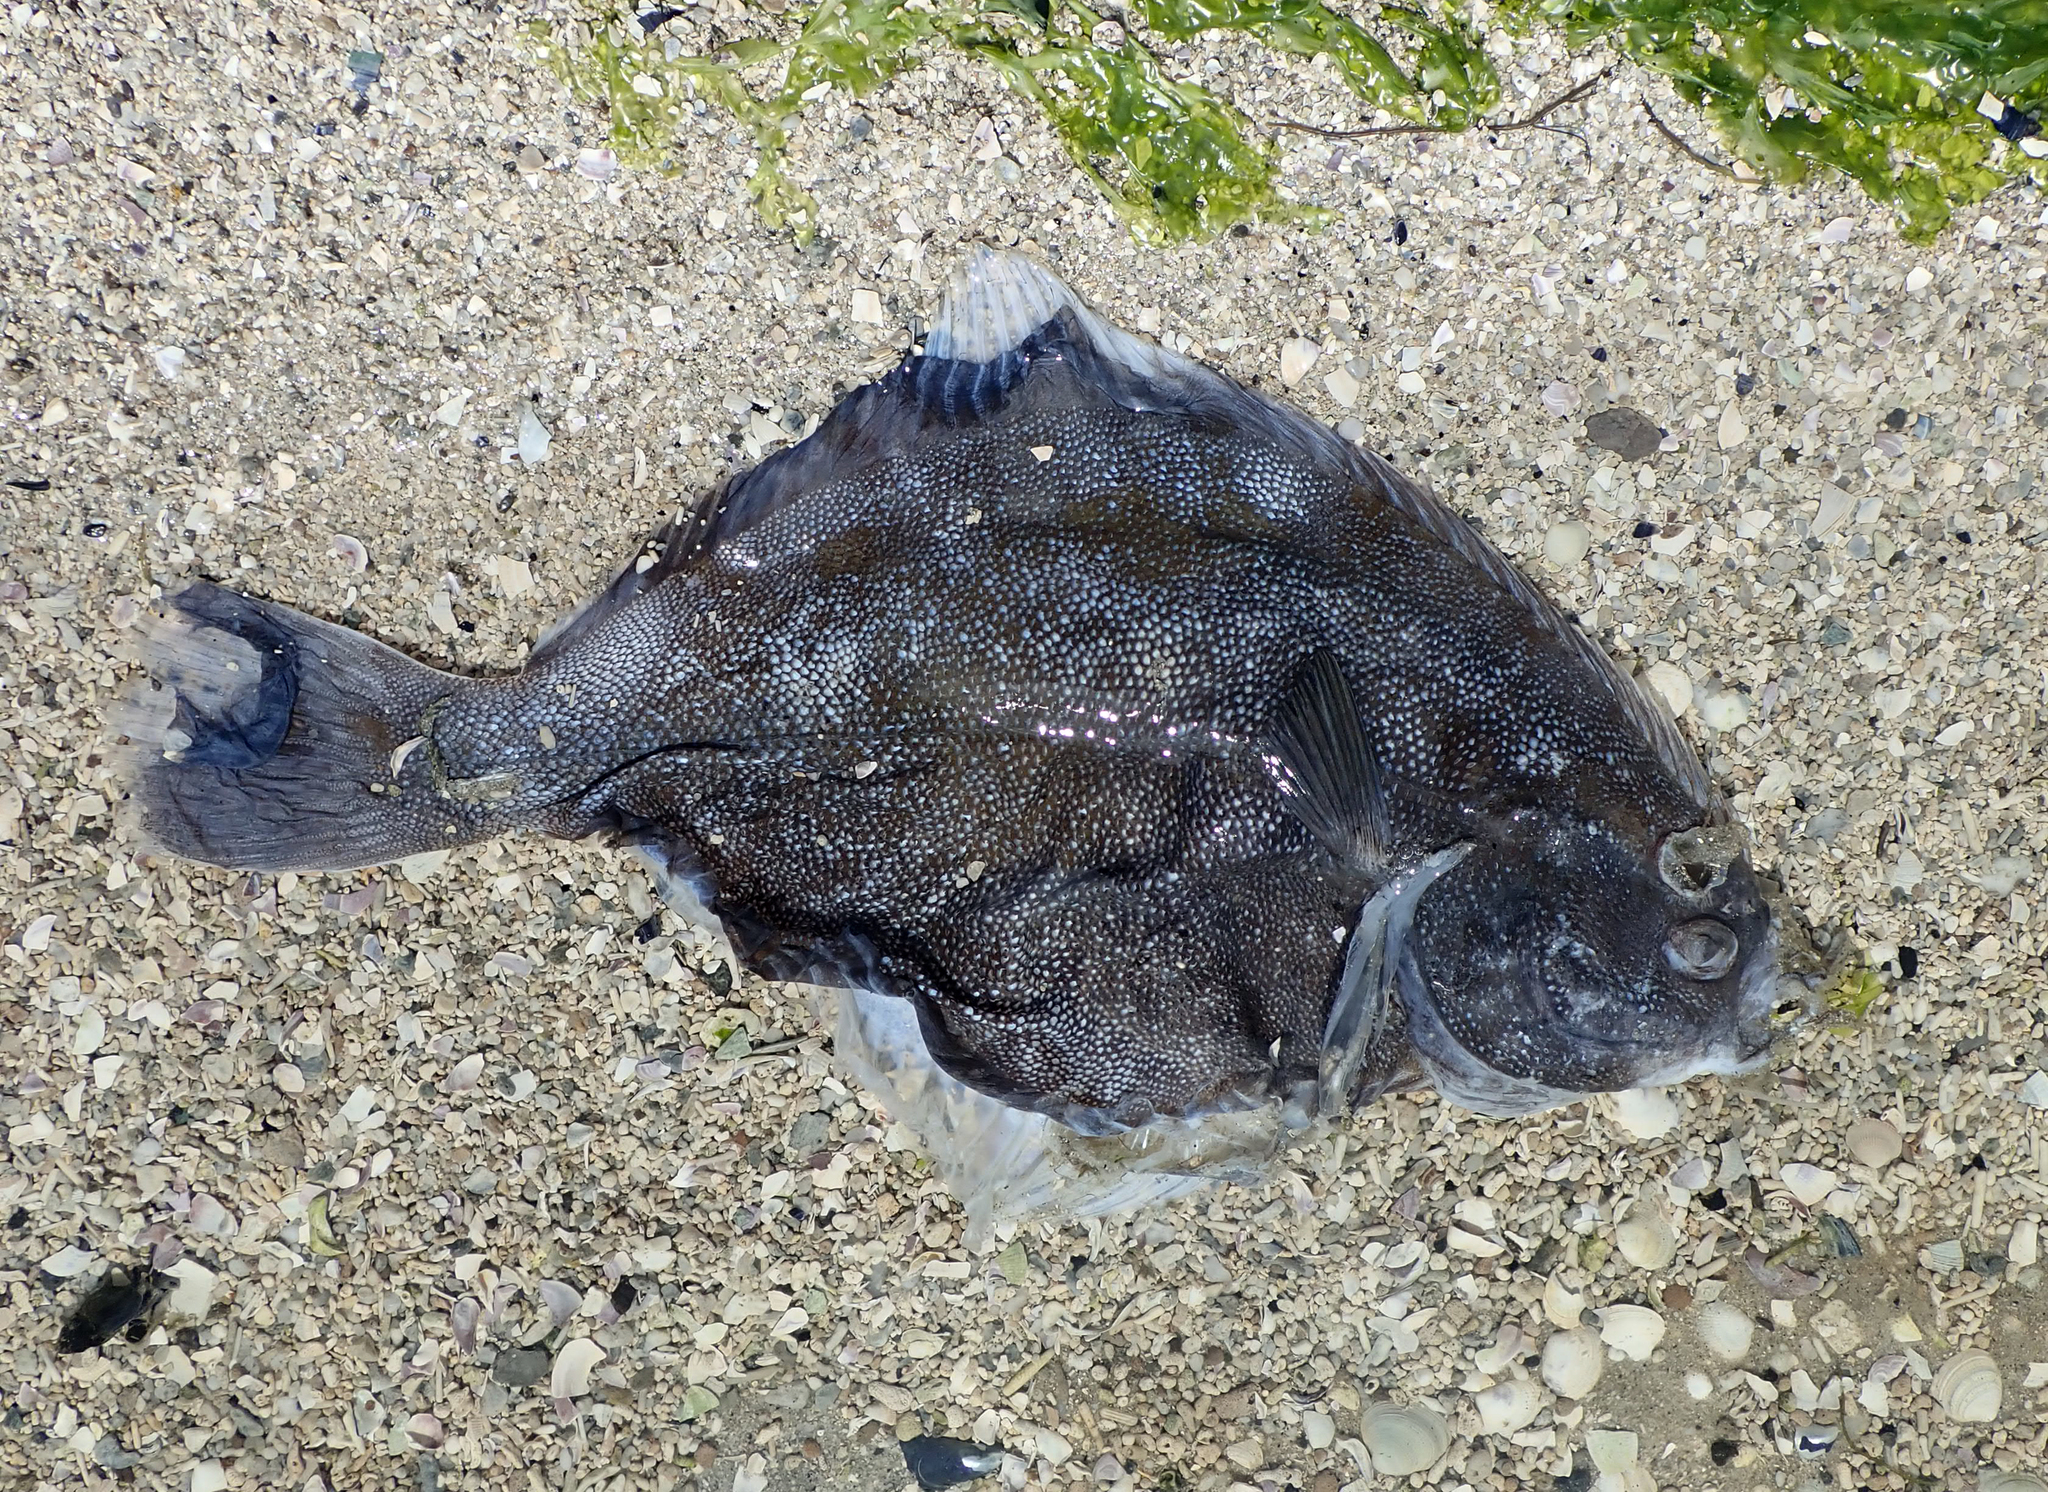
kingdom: Animalia
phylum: Chordata
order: Pleuronectiformes
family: Pleuronectidae
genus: Rhombosolea
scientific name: Rhombosolea plebeia
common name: Dab
